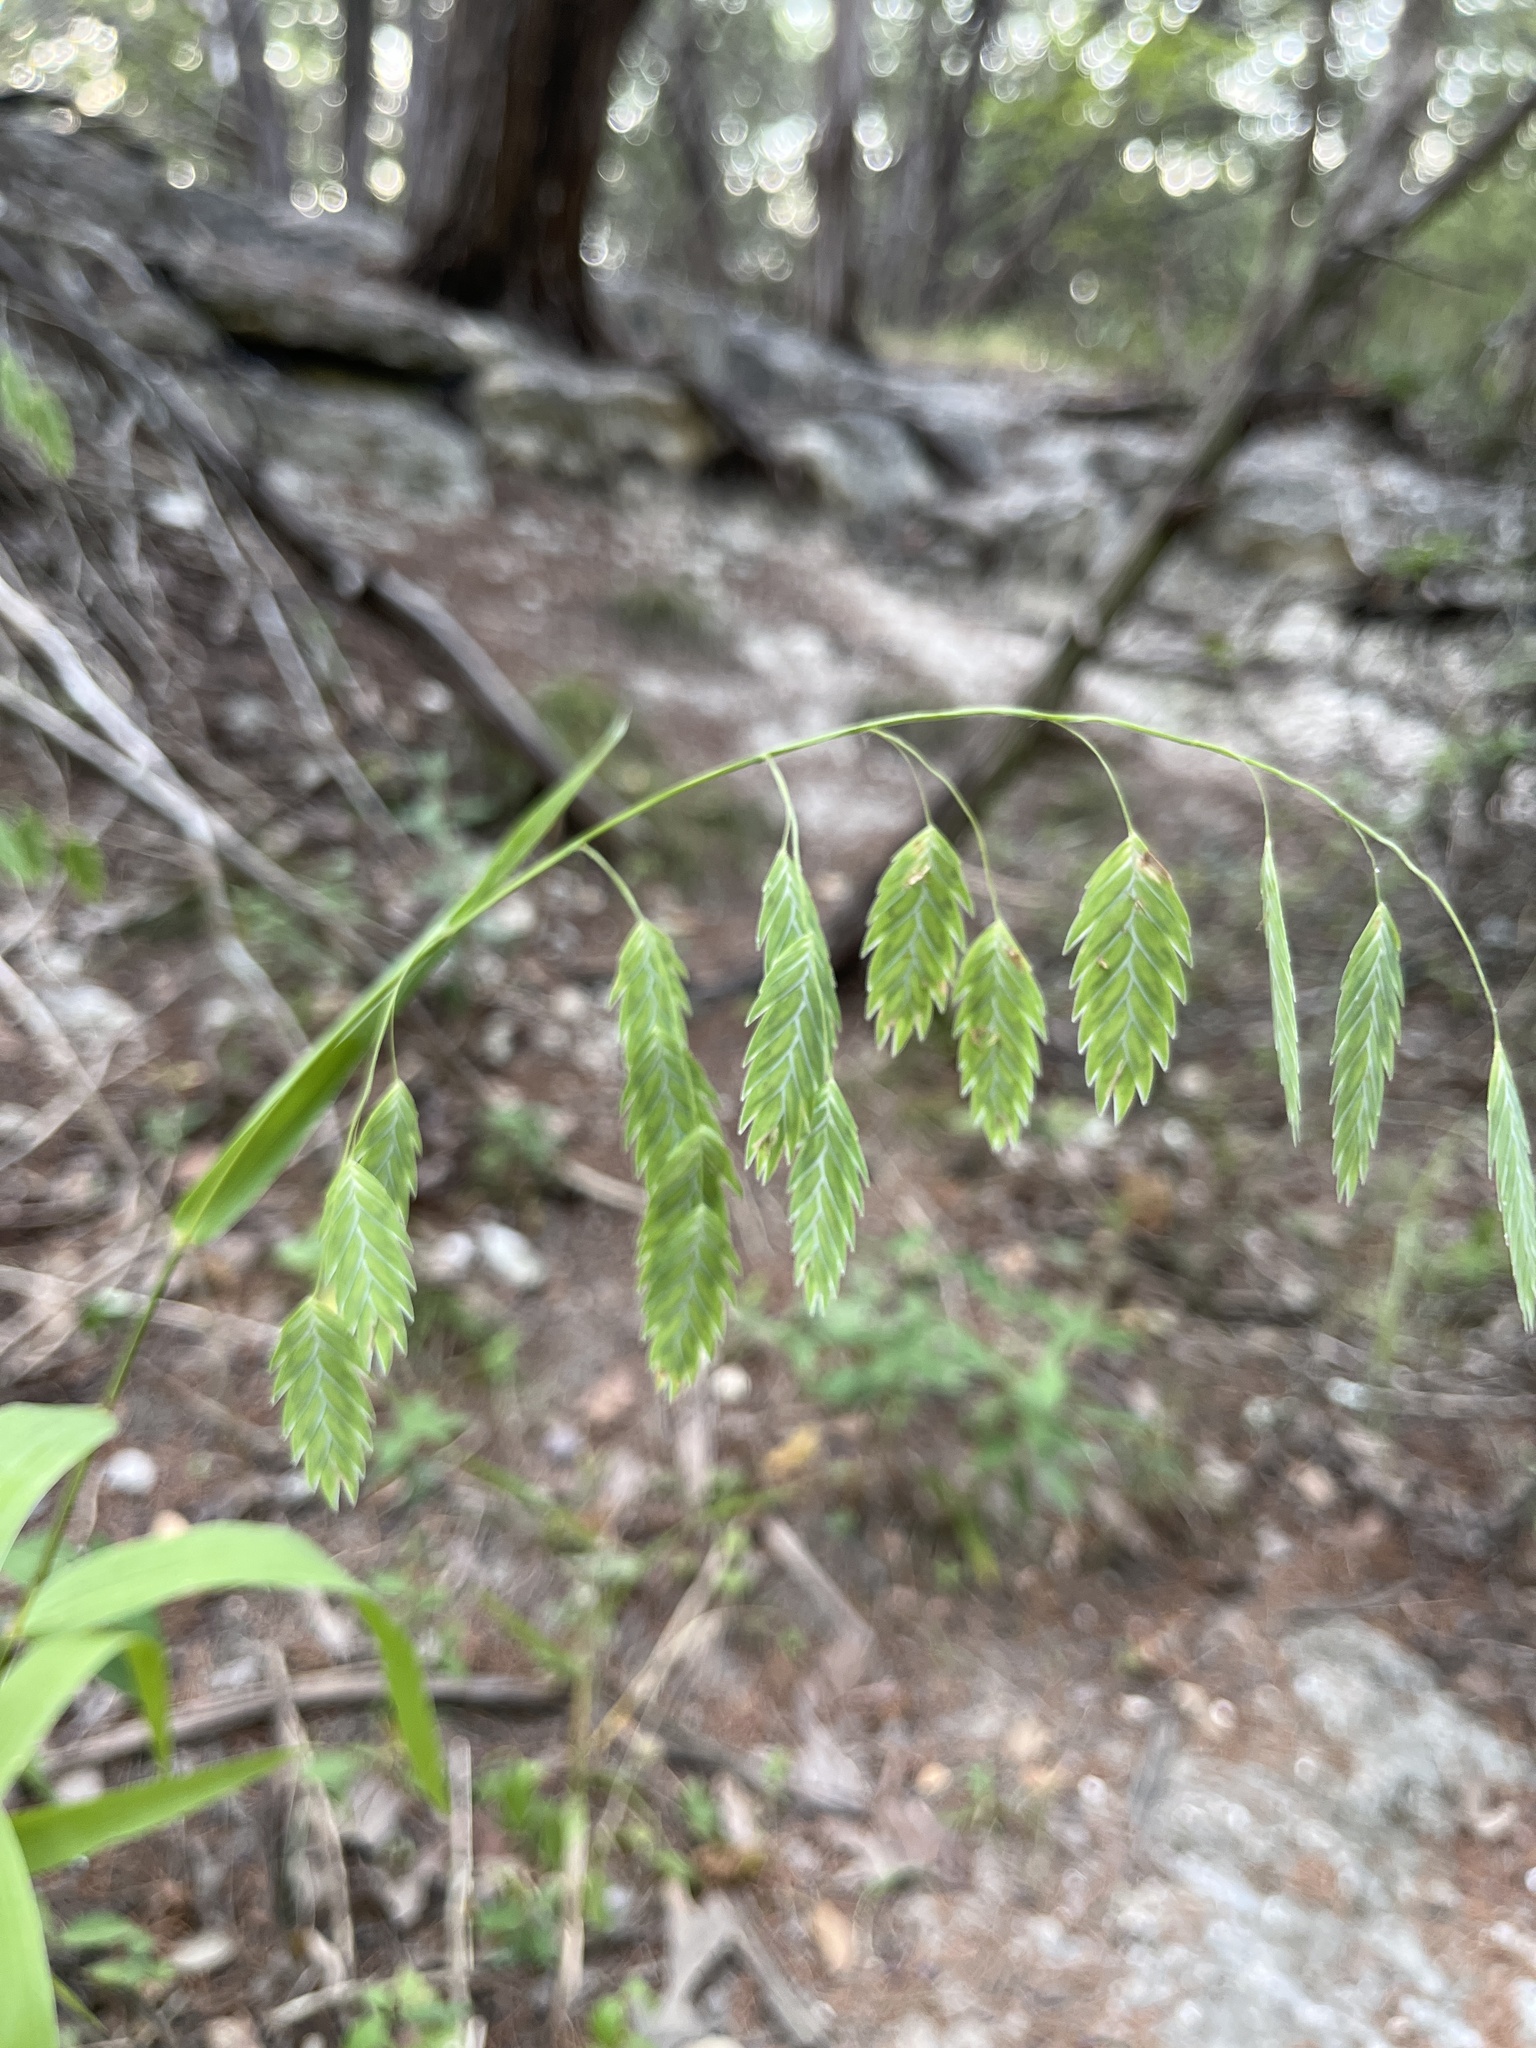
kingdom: Plantae
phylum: Tracheophyta
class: Liliopsida
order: Poales
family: Poaceae
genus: Chasmanthium
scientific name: Chasmanthium latifolium
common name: Broad-leaved chasmanthium
